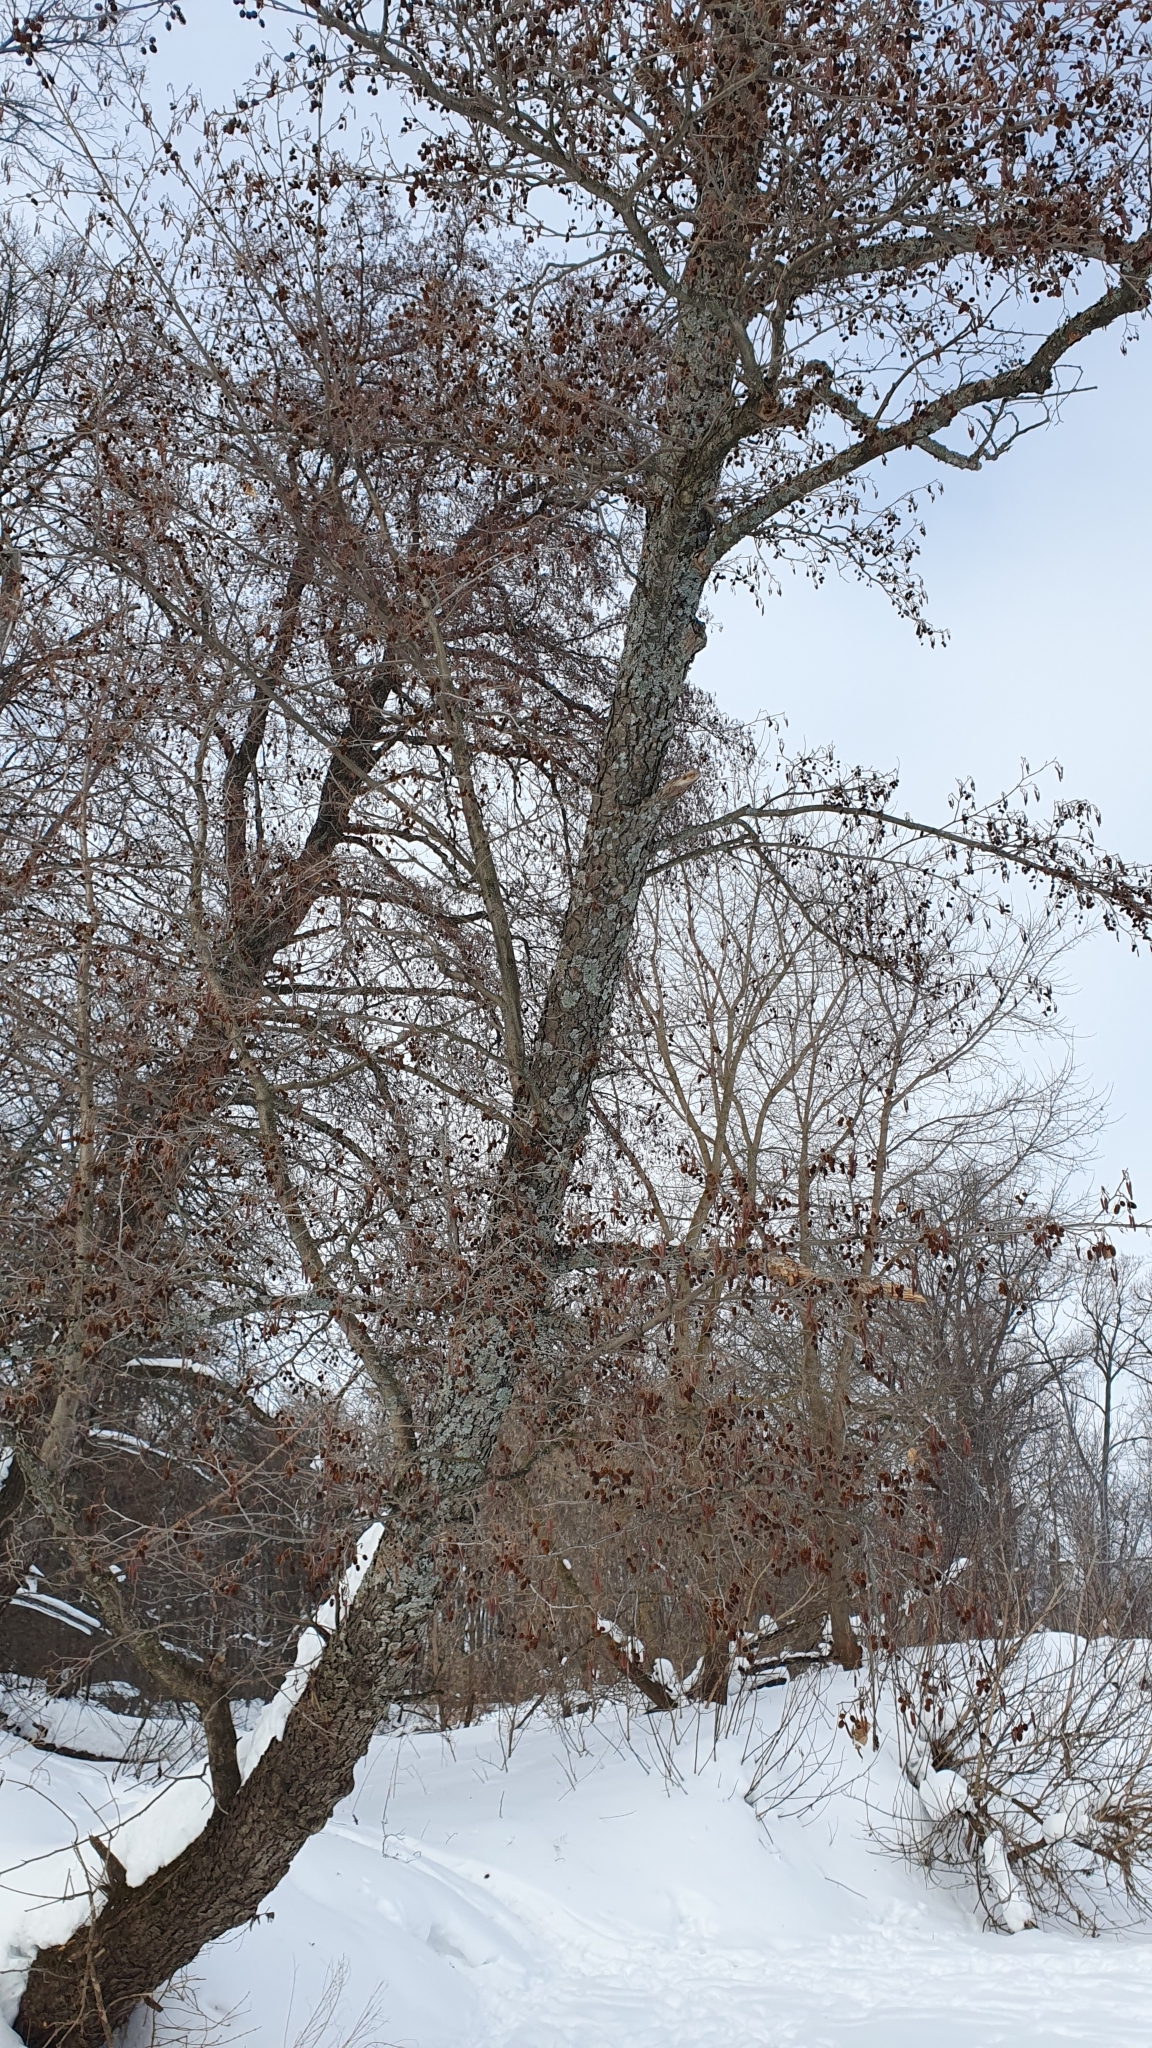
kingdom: Plantae
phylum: Tracheophyta
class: Magnoliopsida
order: Fagales
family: Betulaceae
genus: Alnus
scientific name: Alnus glutinosa
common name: Black alder
